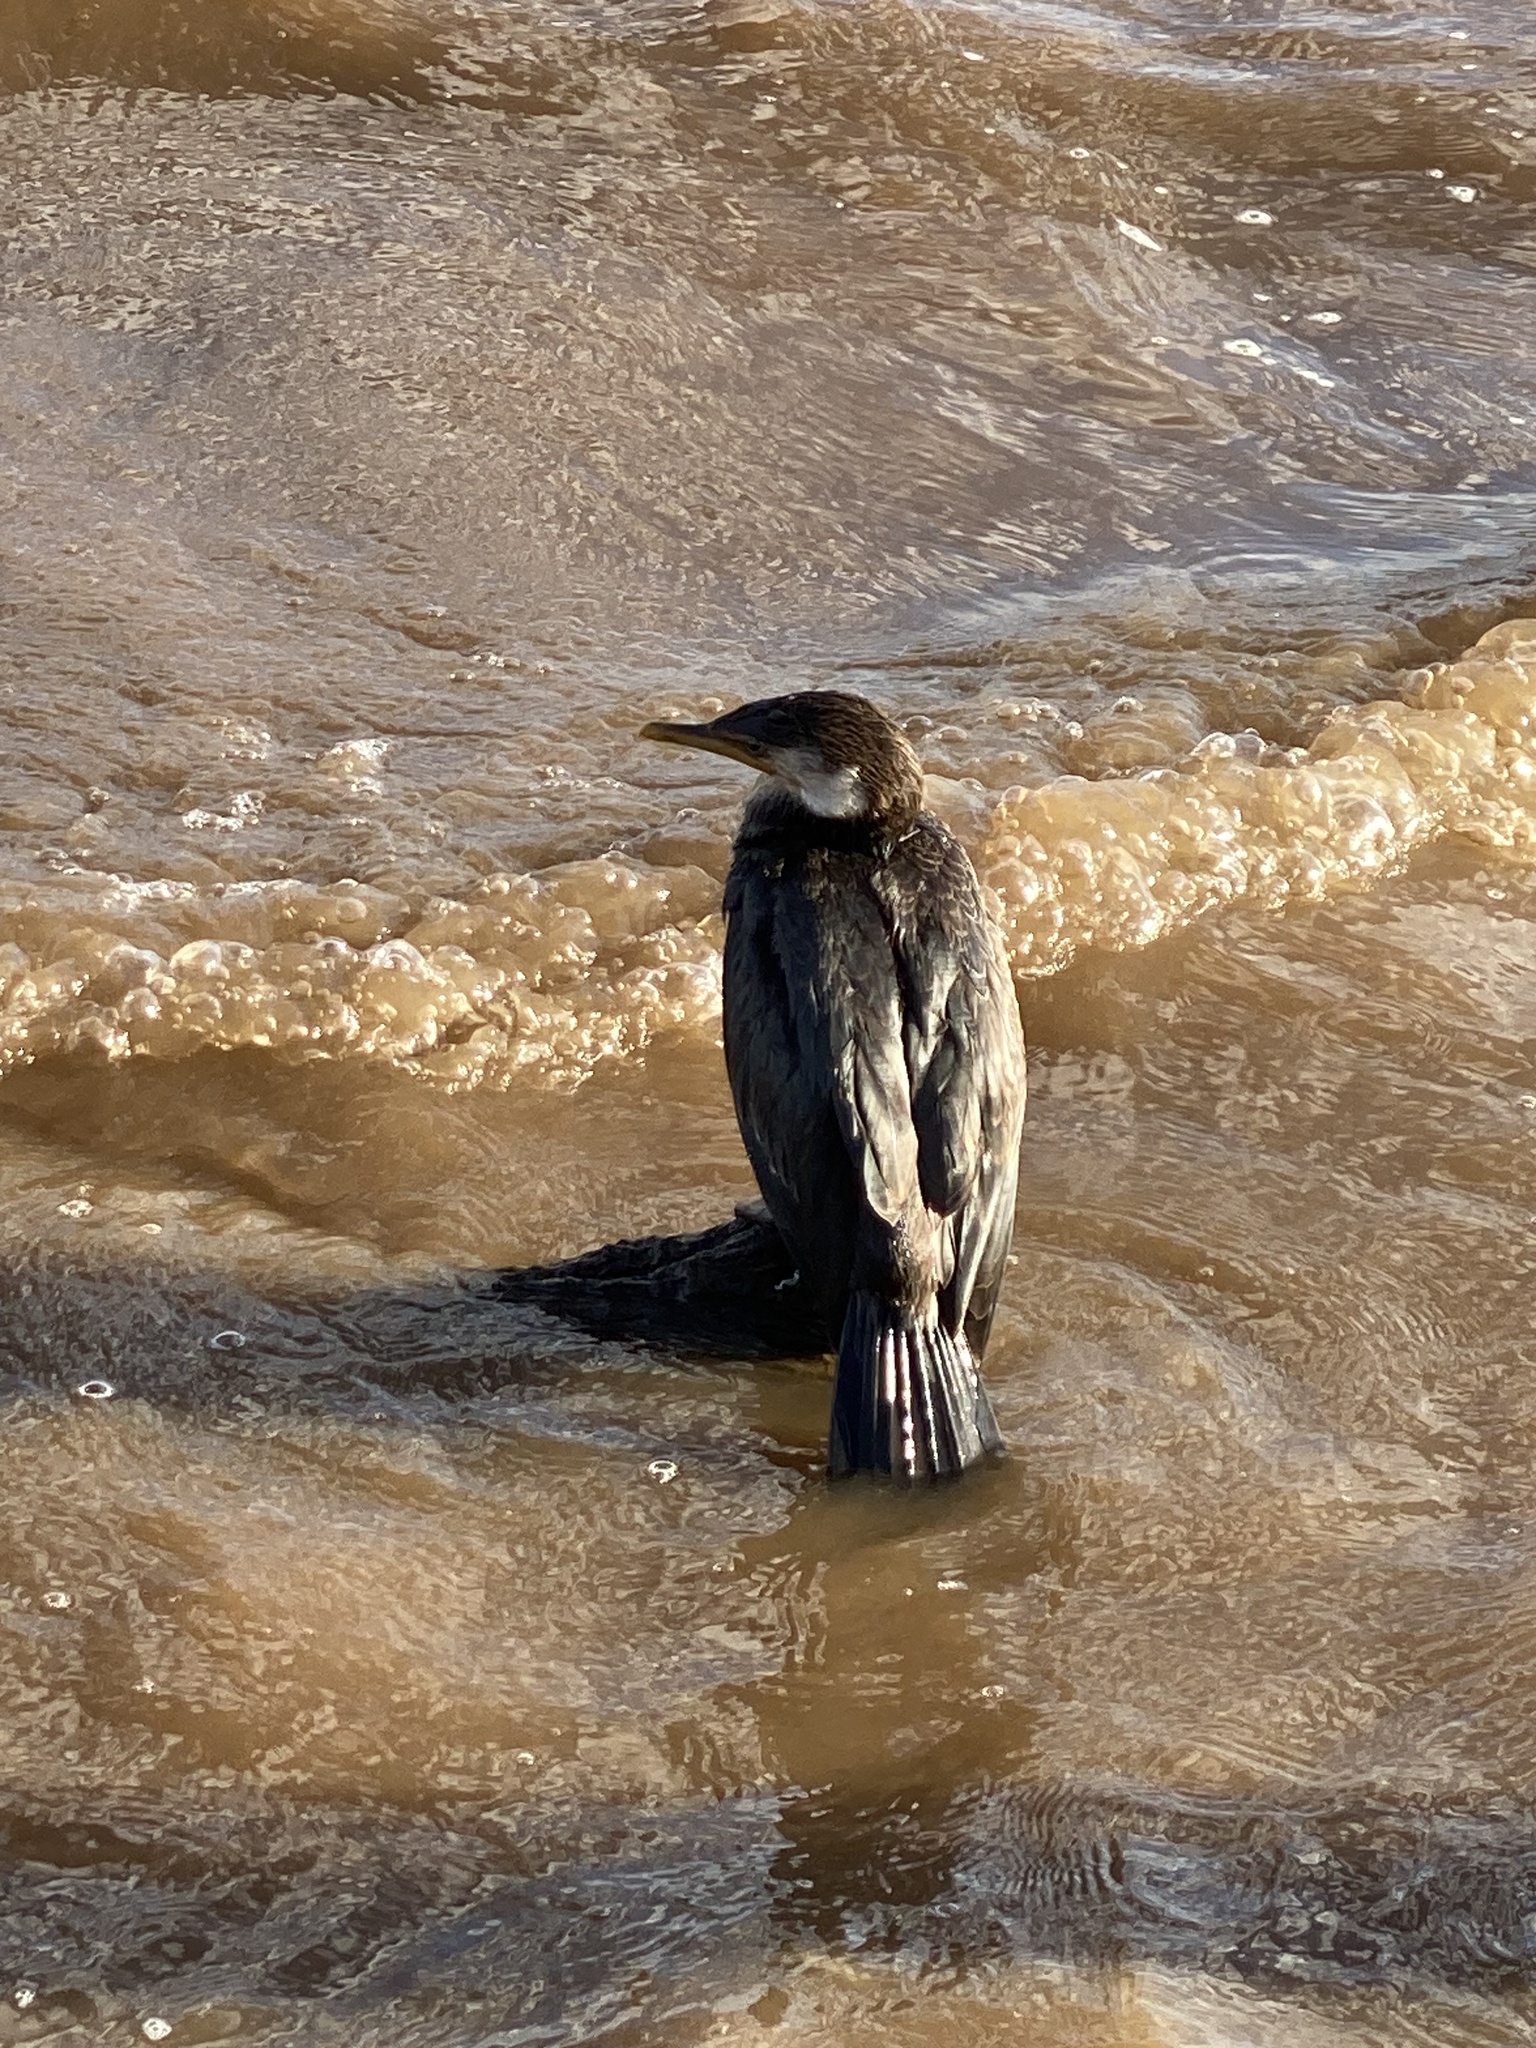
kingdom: Animalia
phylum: Chordata
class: Aves
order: Suliformes
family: Phalacrocoracidae
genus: Microcarbo
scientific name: Microcarbo melanoleucos
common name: Little pied cormorant
